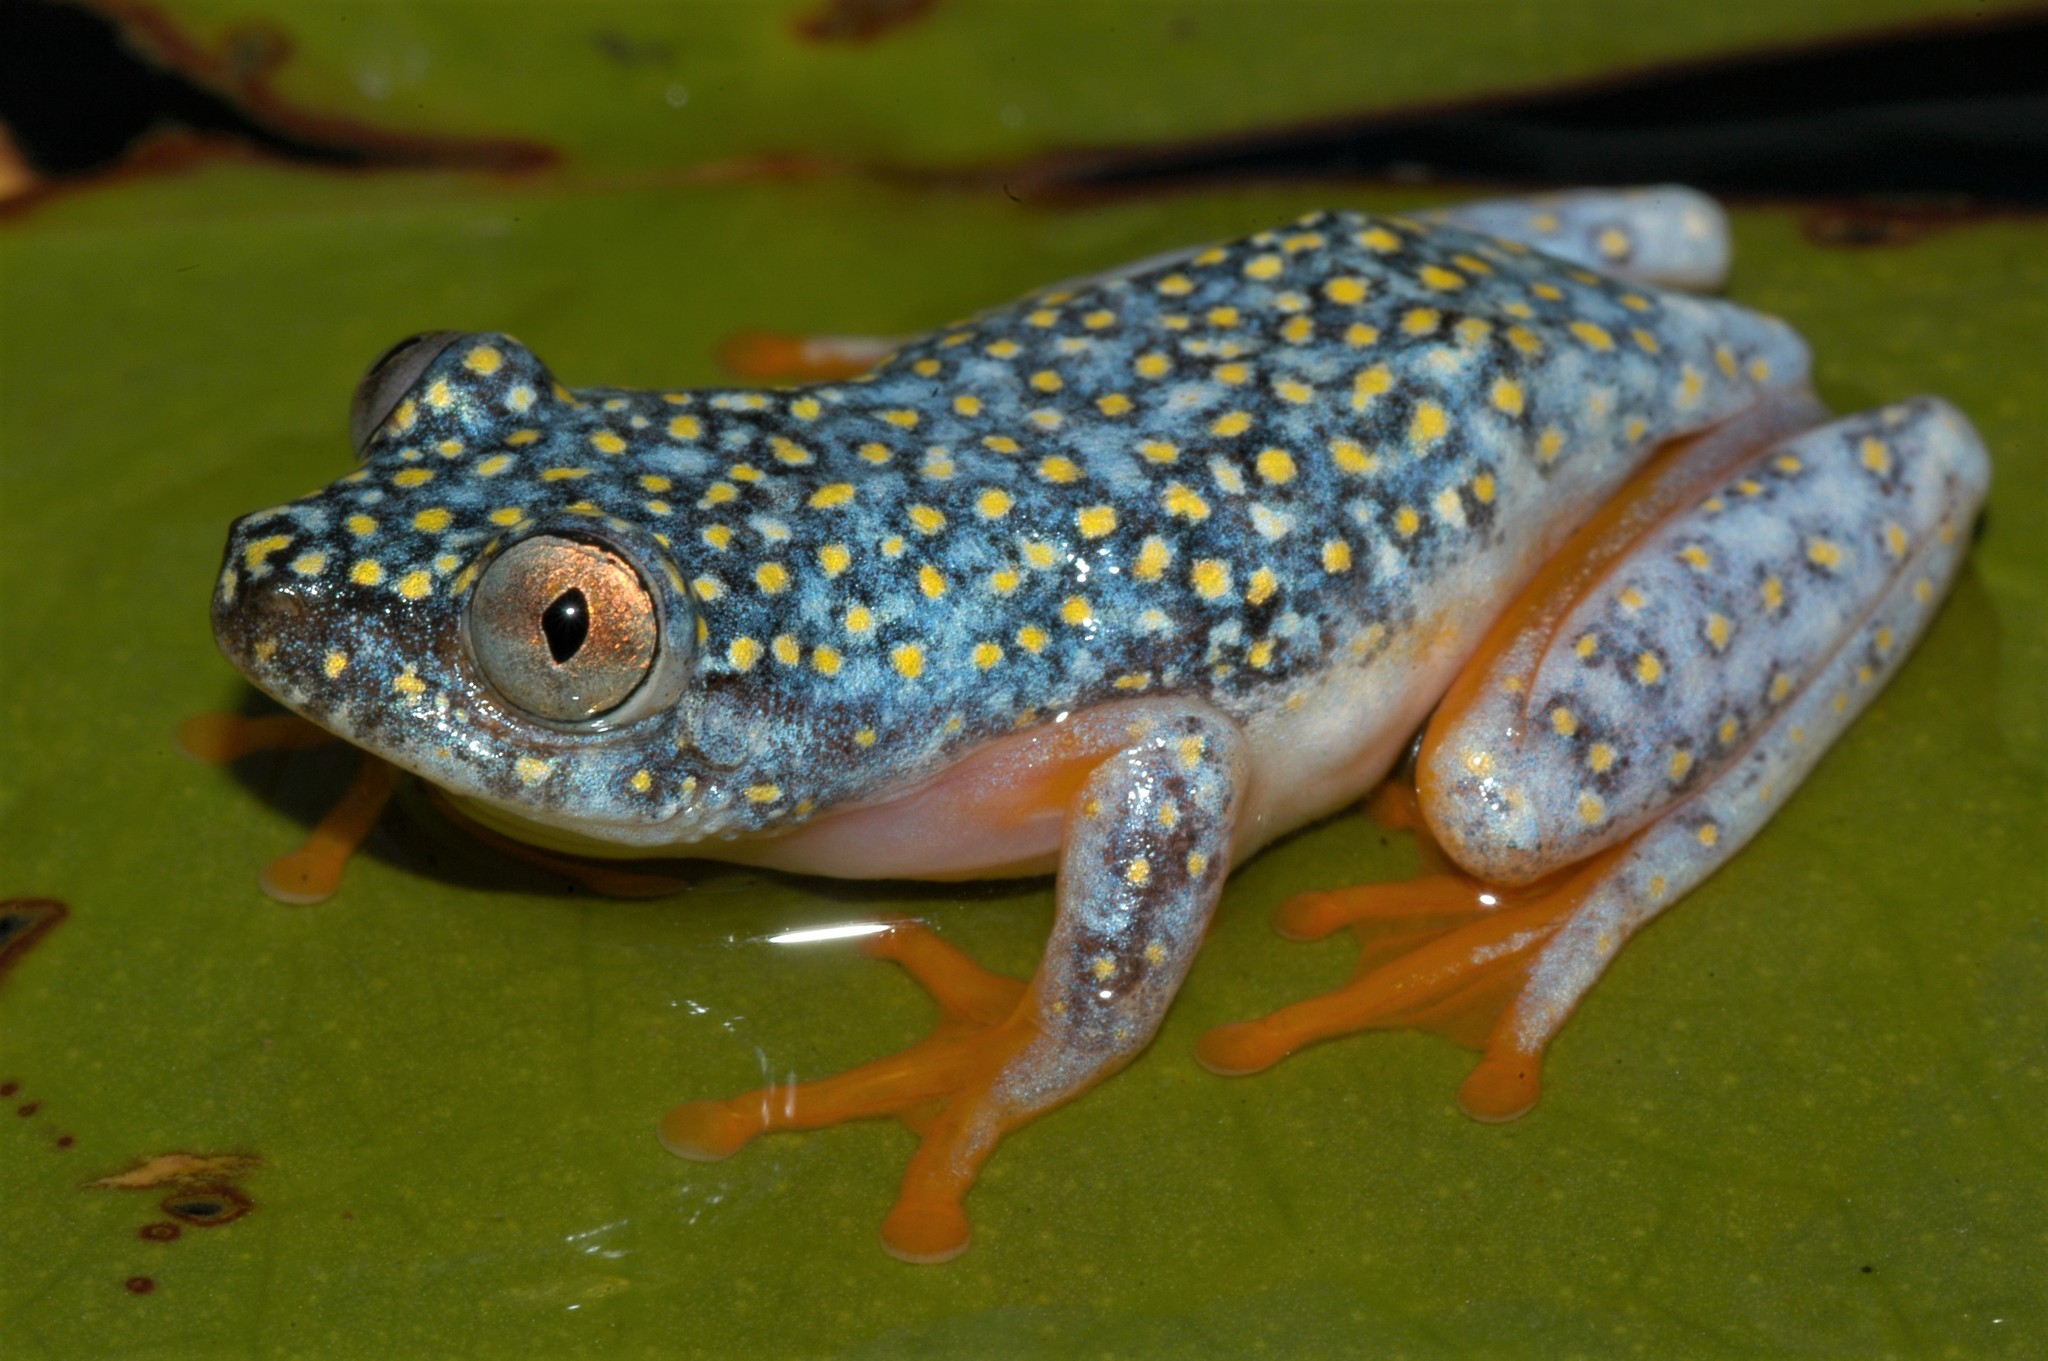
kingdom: Animalia
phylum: Chordata
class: Amphibia
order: Anura
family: Hyperoliidae
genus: Heterixalus
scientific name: Heterixalus alboguttatus
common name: Whitebelly reed frog
